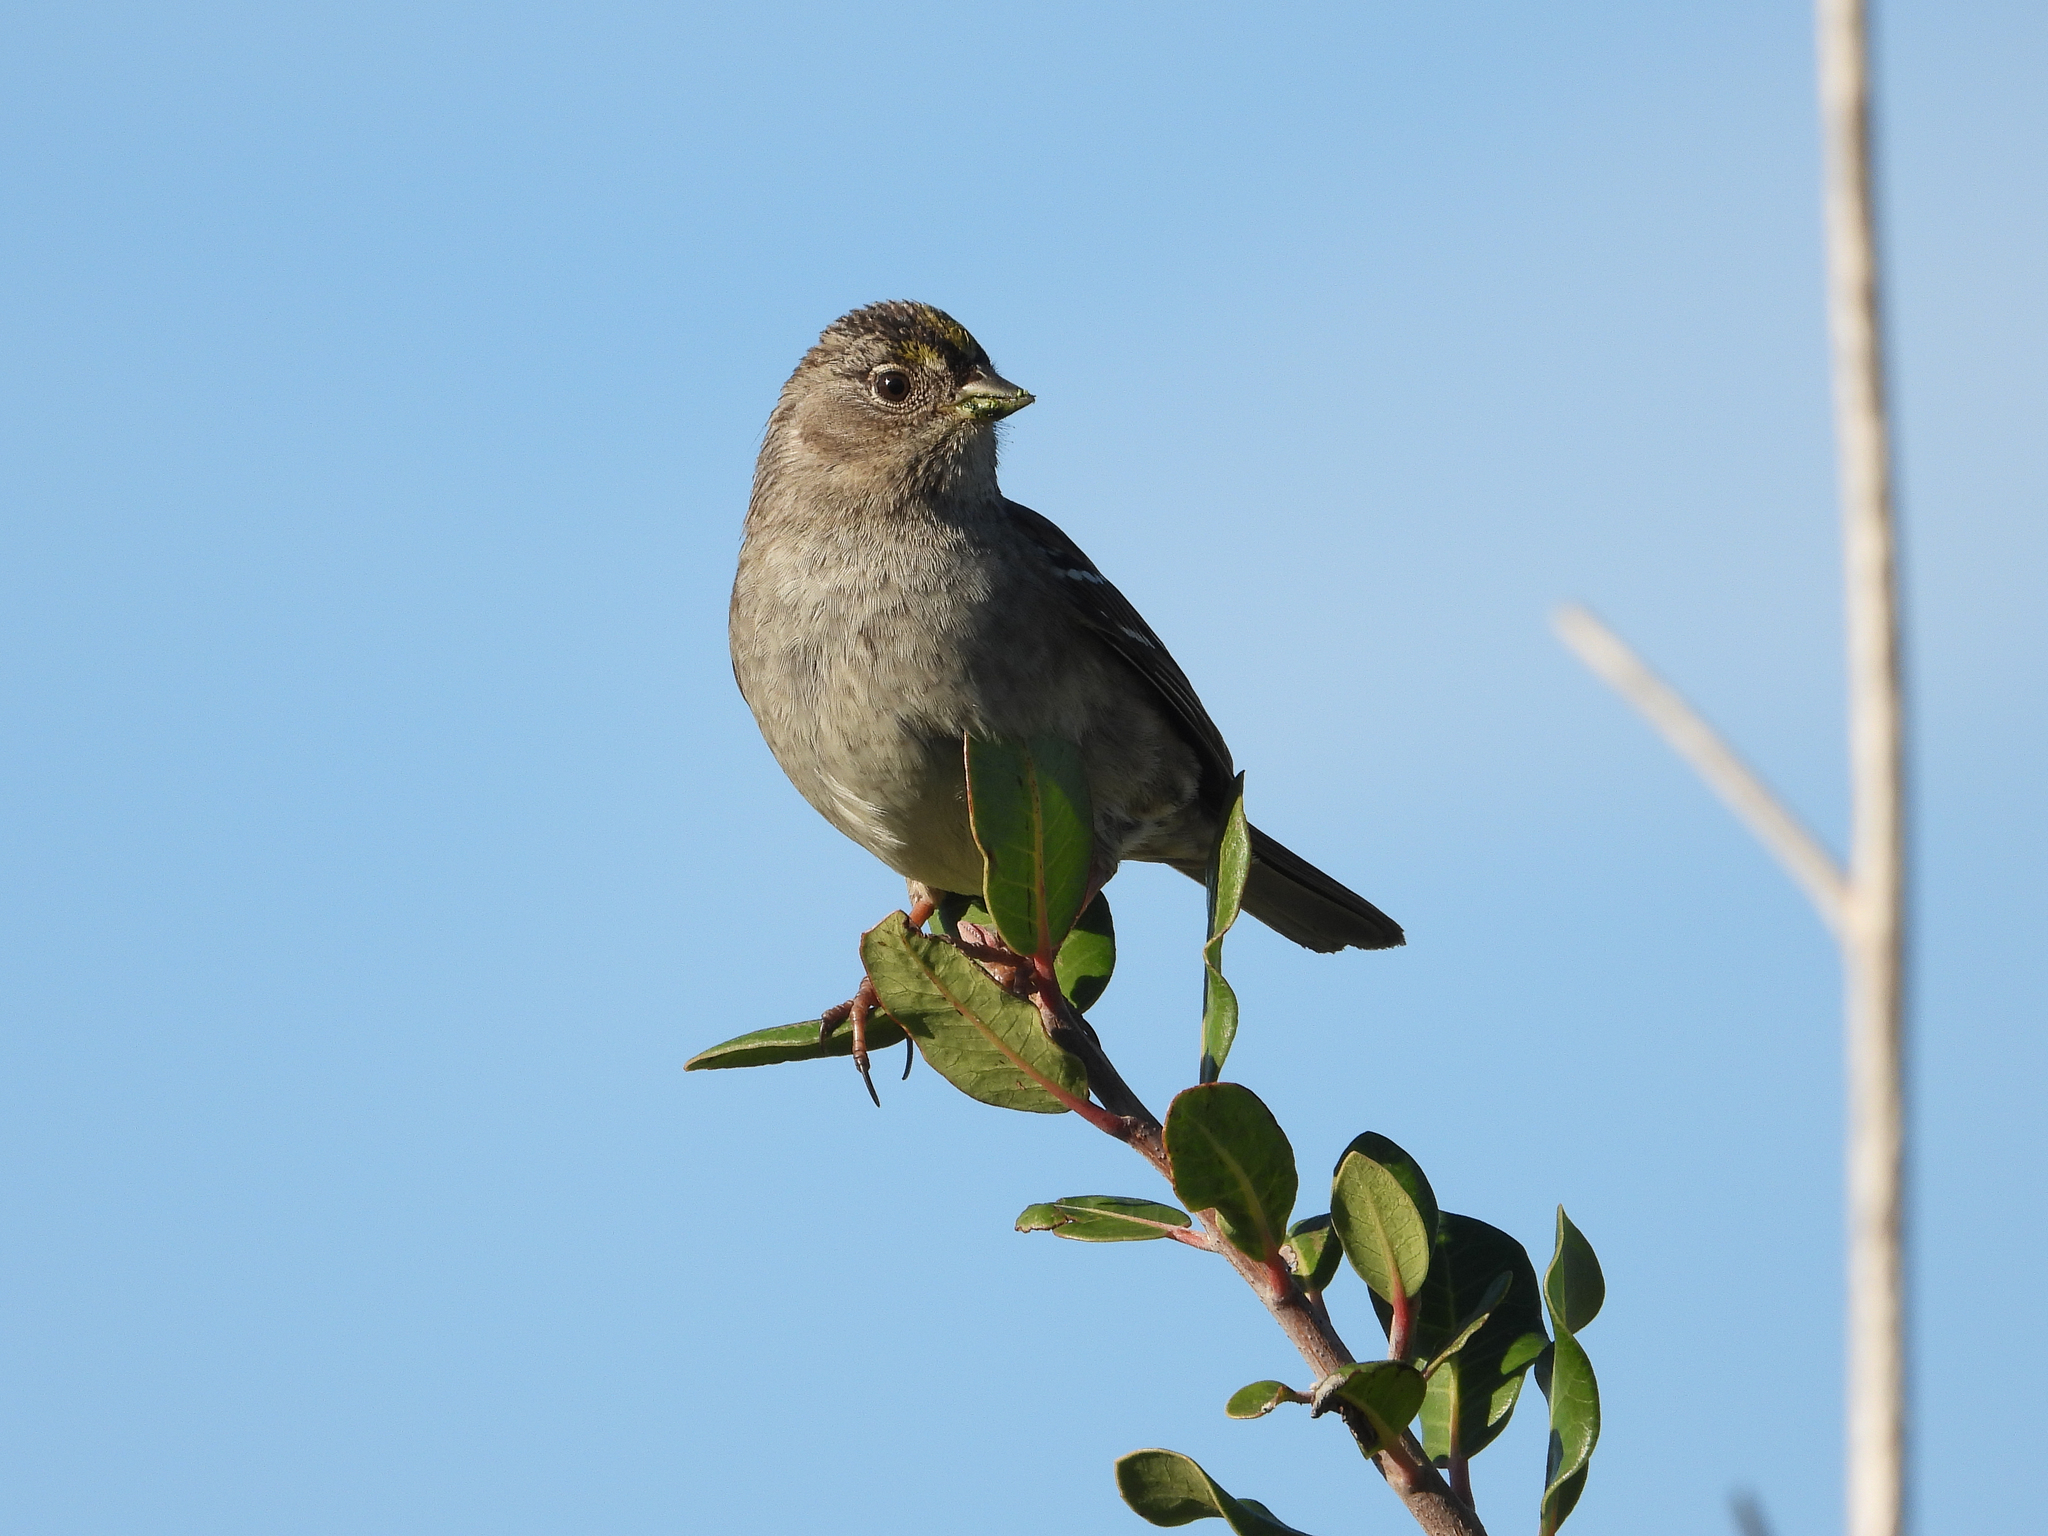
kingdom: Animalia
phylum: Chordata
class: Aves
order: Passeriformes
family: Passerellidae
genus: Zonotrichia
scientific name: Zonotrichia atricapilla
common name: Golden-crowned sparrow
